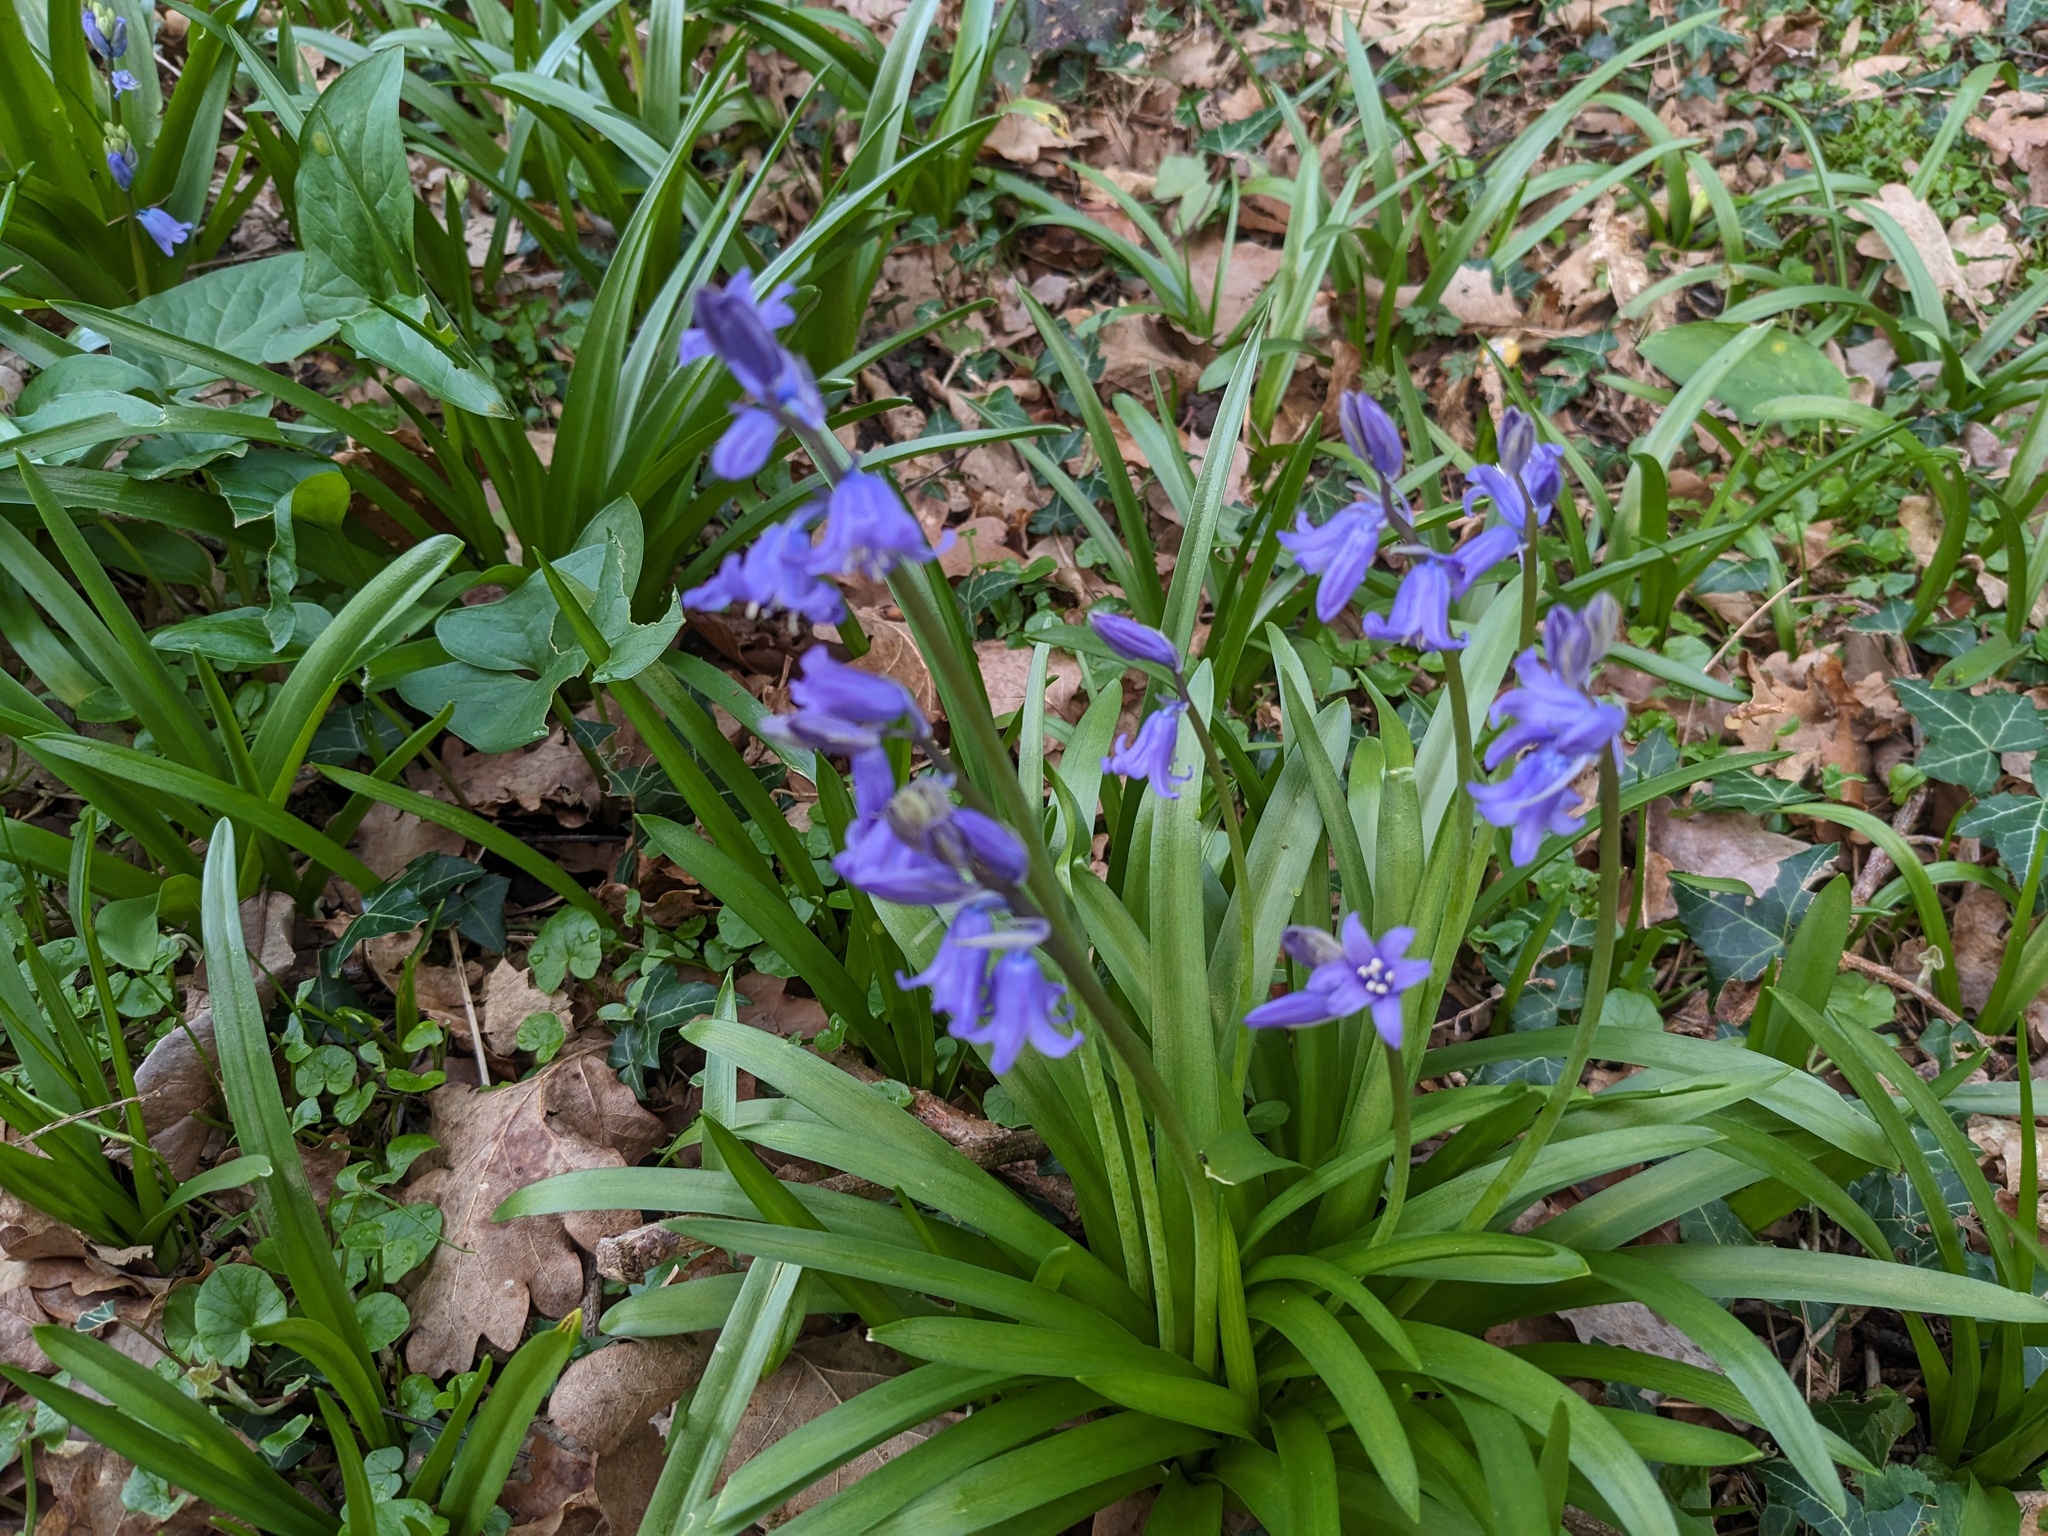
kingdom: Plantae
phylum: Tracheophyta
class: Liliopsida
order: Asparagales
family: Asparagaceae
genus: Hyacinthoides
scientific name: Hyacinthoides massartiana
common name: Hyacinthoides
